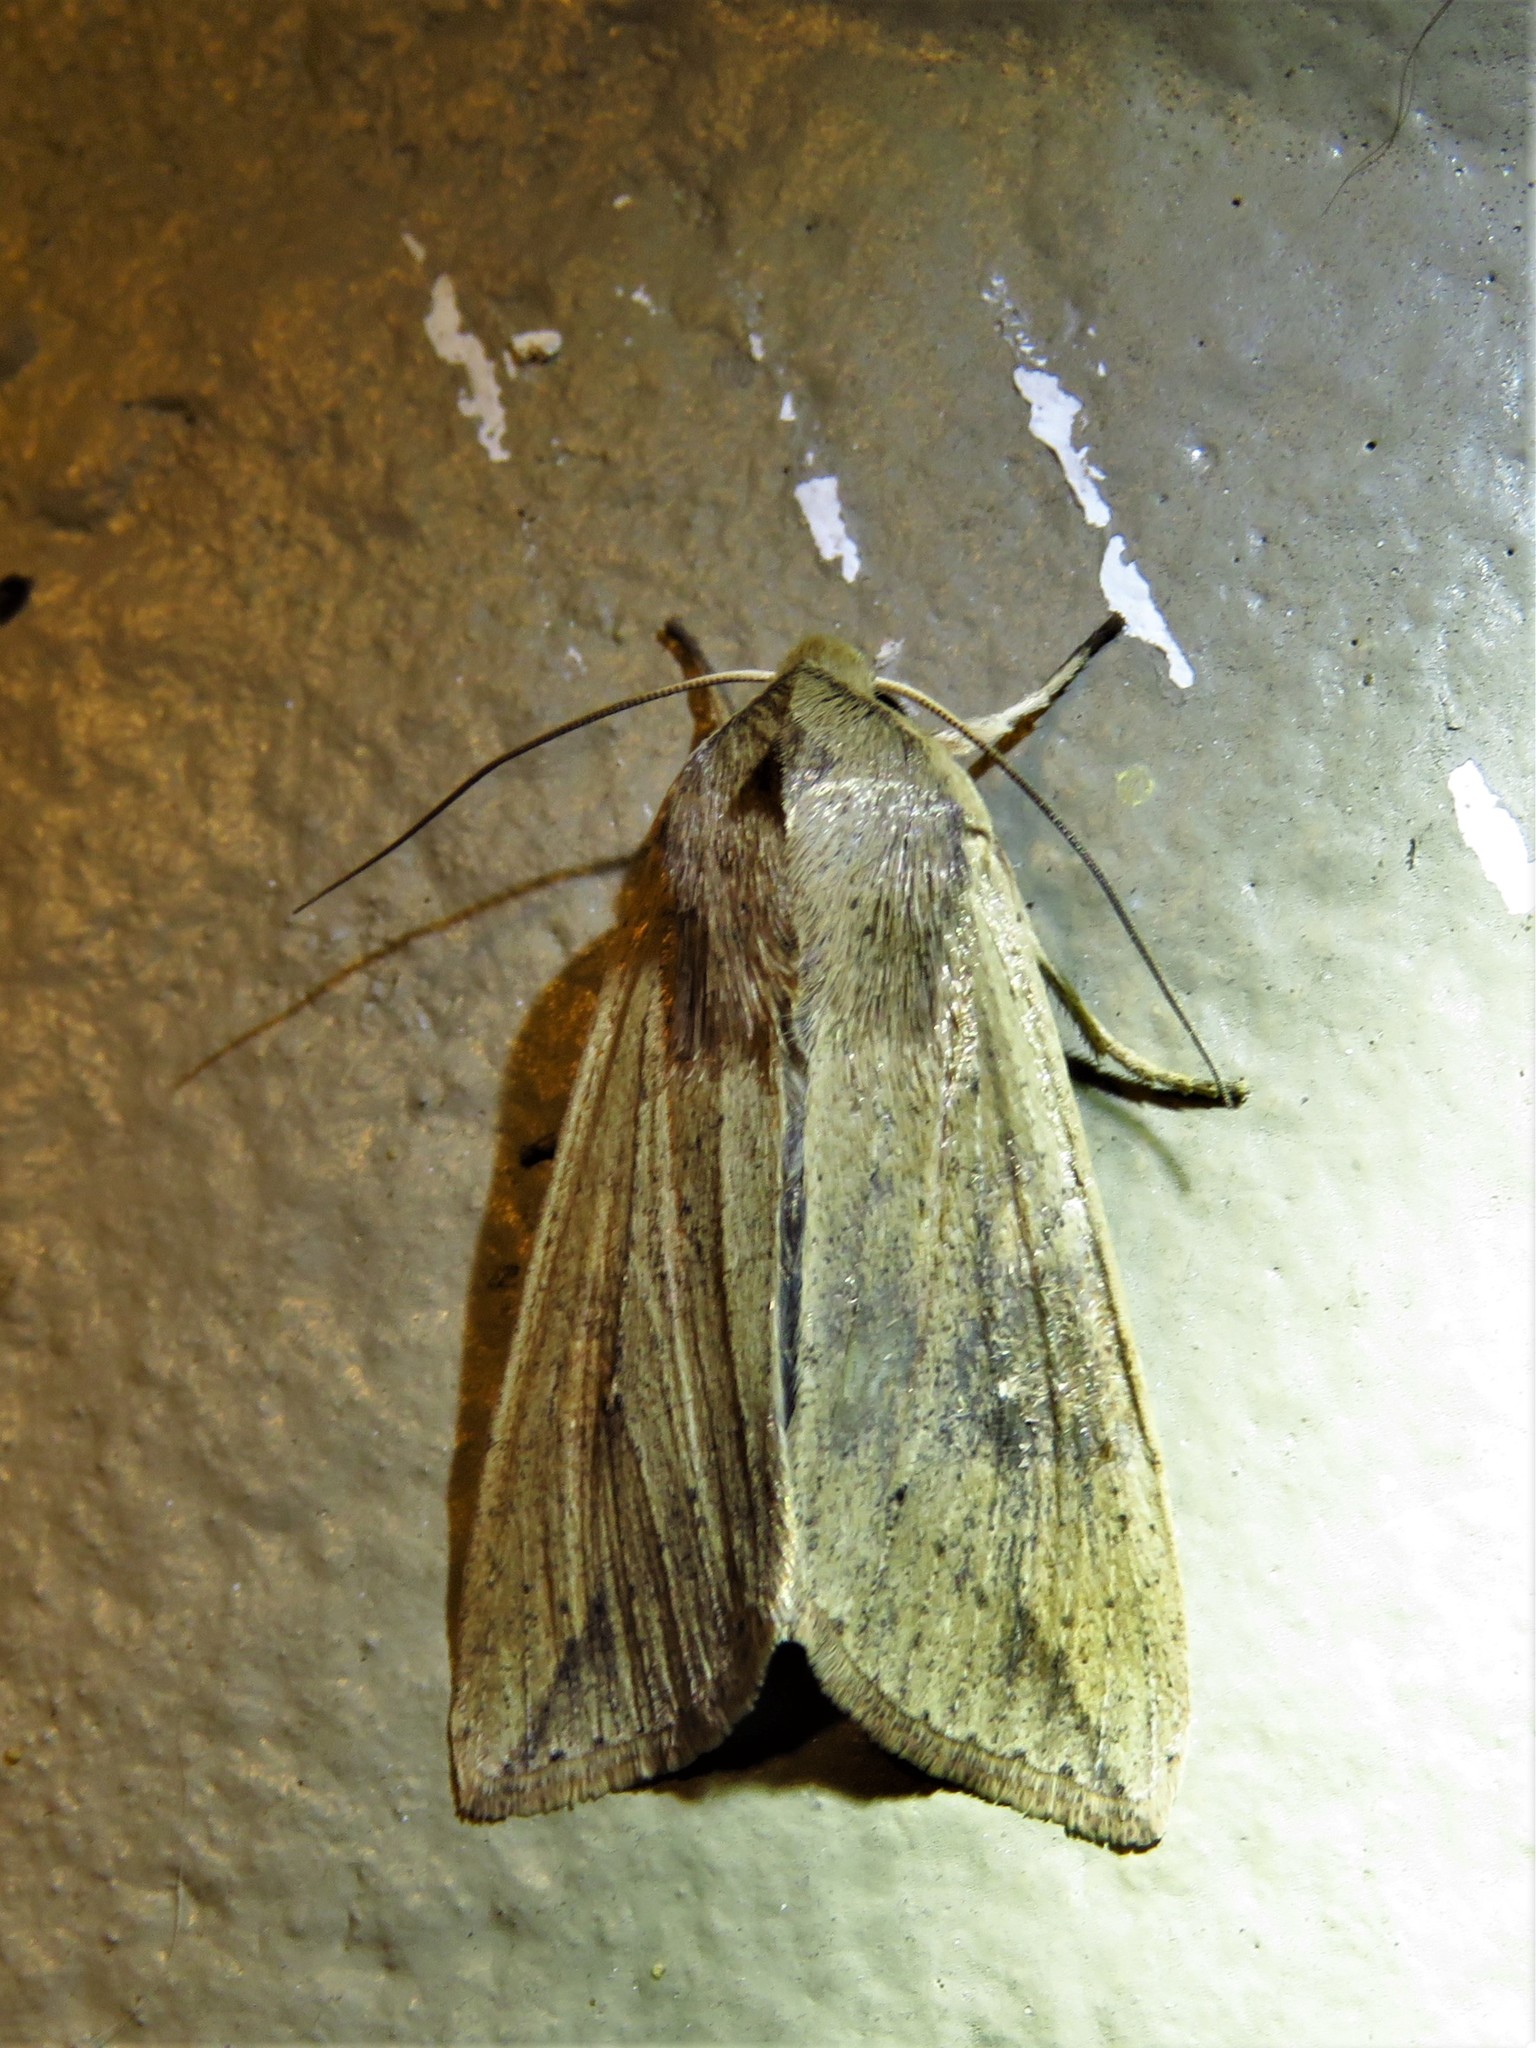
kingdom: Animalia
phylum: Arthropoda
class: Insecta
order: Lepidoptera
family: Noctuidae
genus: Mythimna
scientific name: Mythimna unipuncta
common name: White-speck
